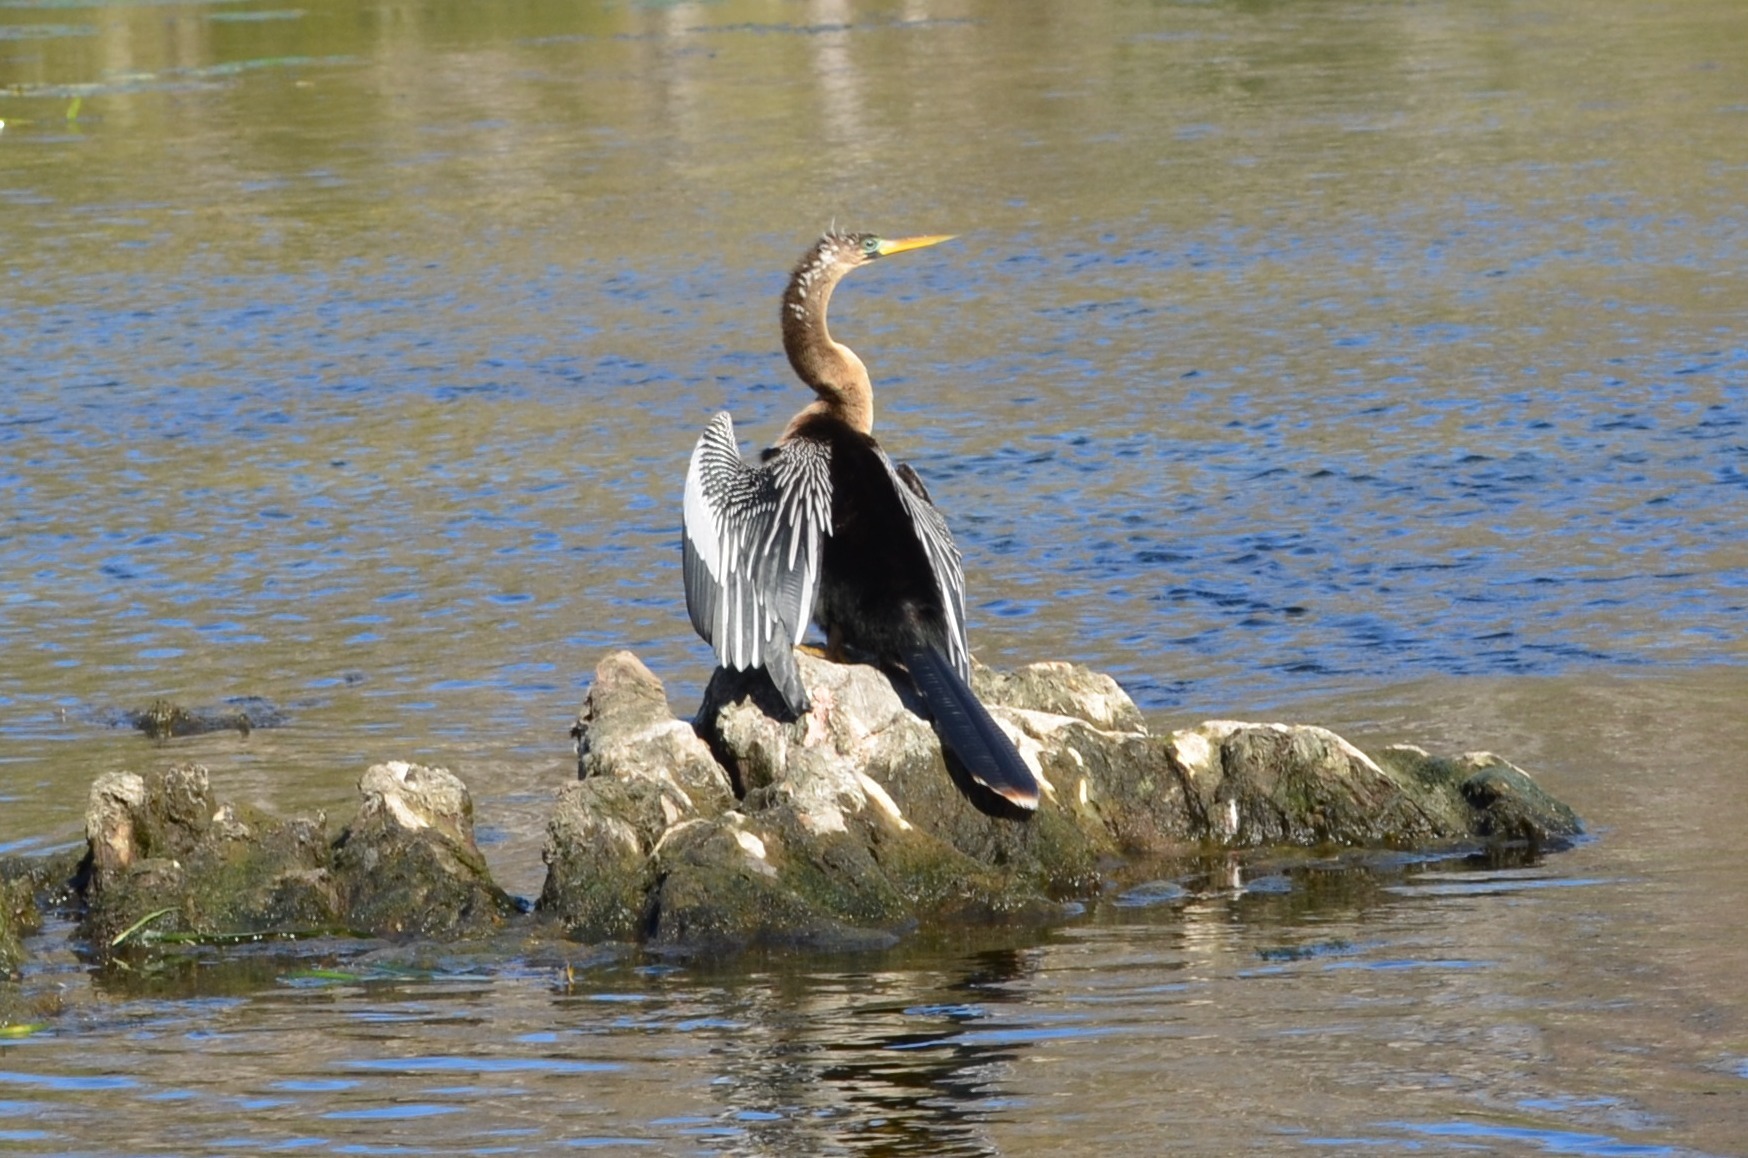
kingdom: Animalia
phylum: Chordata
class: Aves
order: Suliformes
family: Anhingidae
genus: Anhinga
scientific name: Anhinga anhinga
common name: Anhinga
